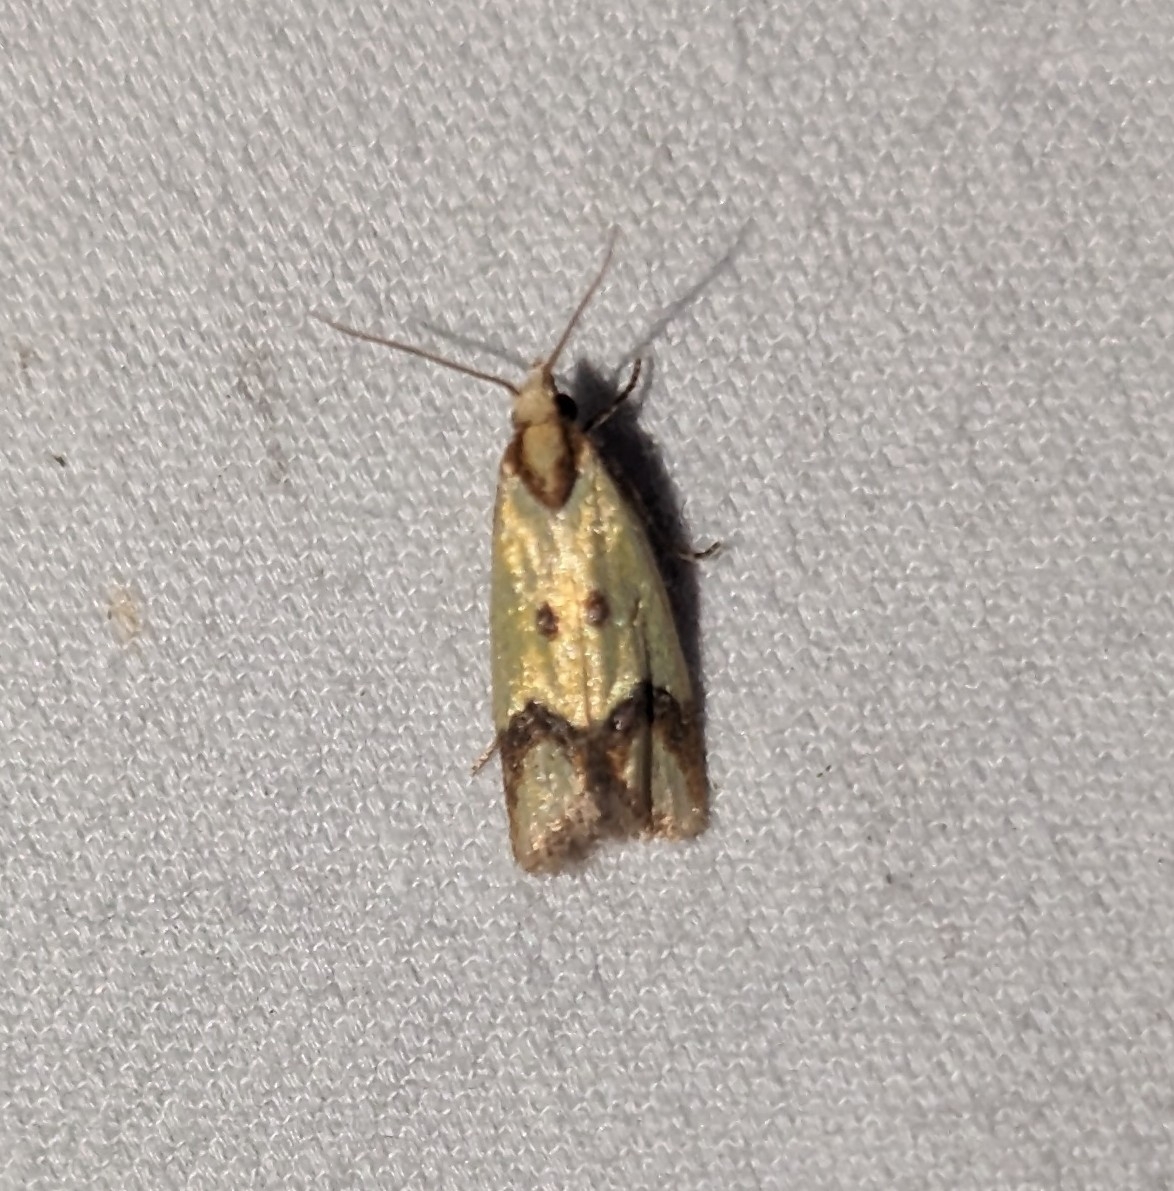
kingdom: Animalia
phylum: Arthropoda
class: Insecta
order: Lepidoptera
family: Tortricidae
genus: Agapeta
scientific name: Agapeta zoegana
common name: Sulfur knapweed root moth
